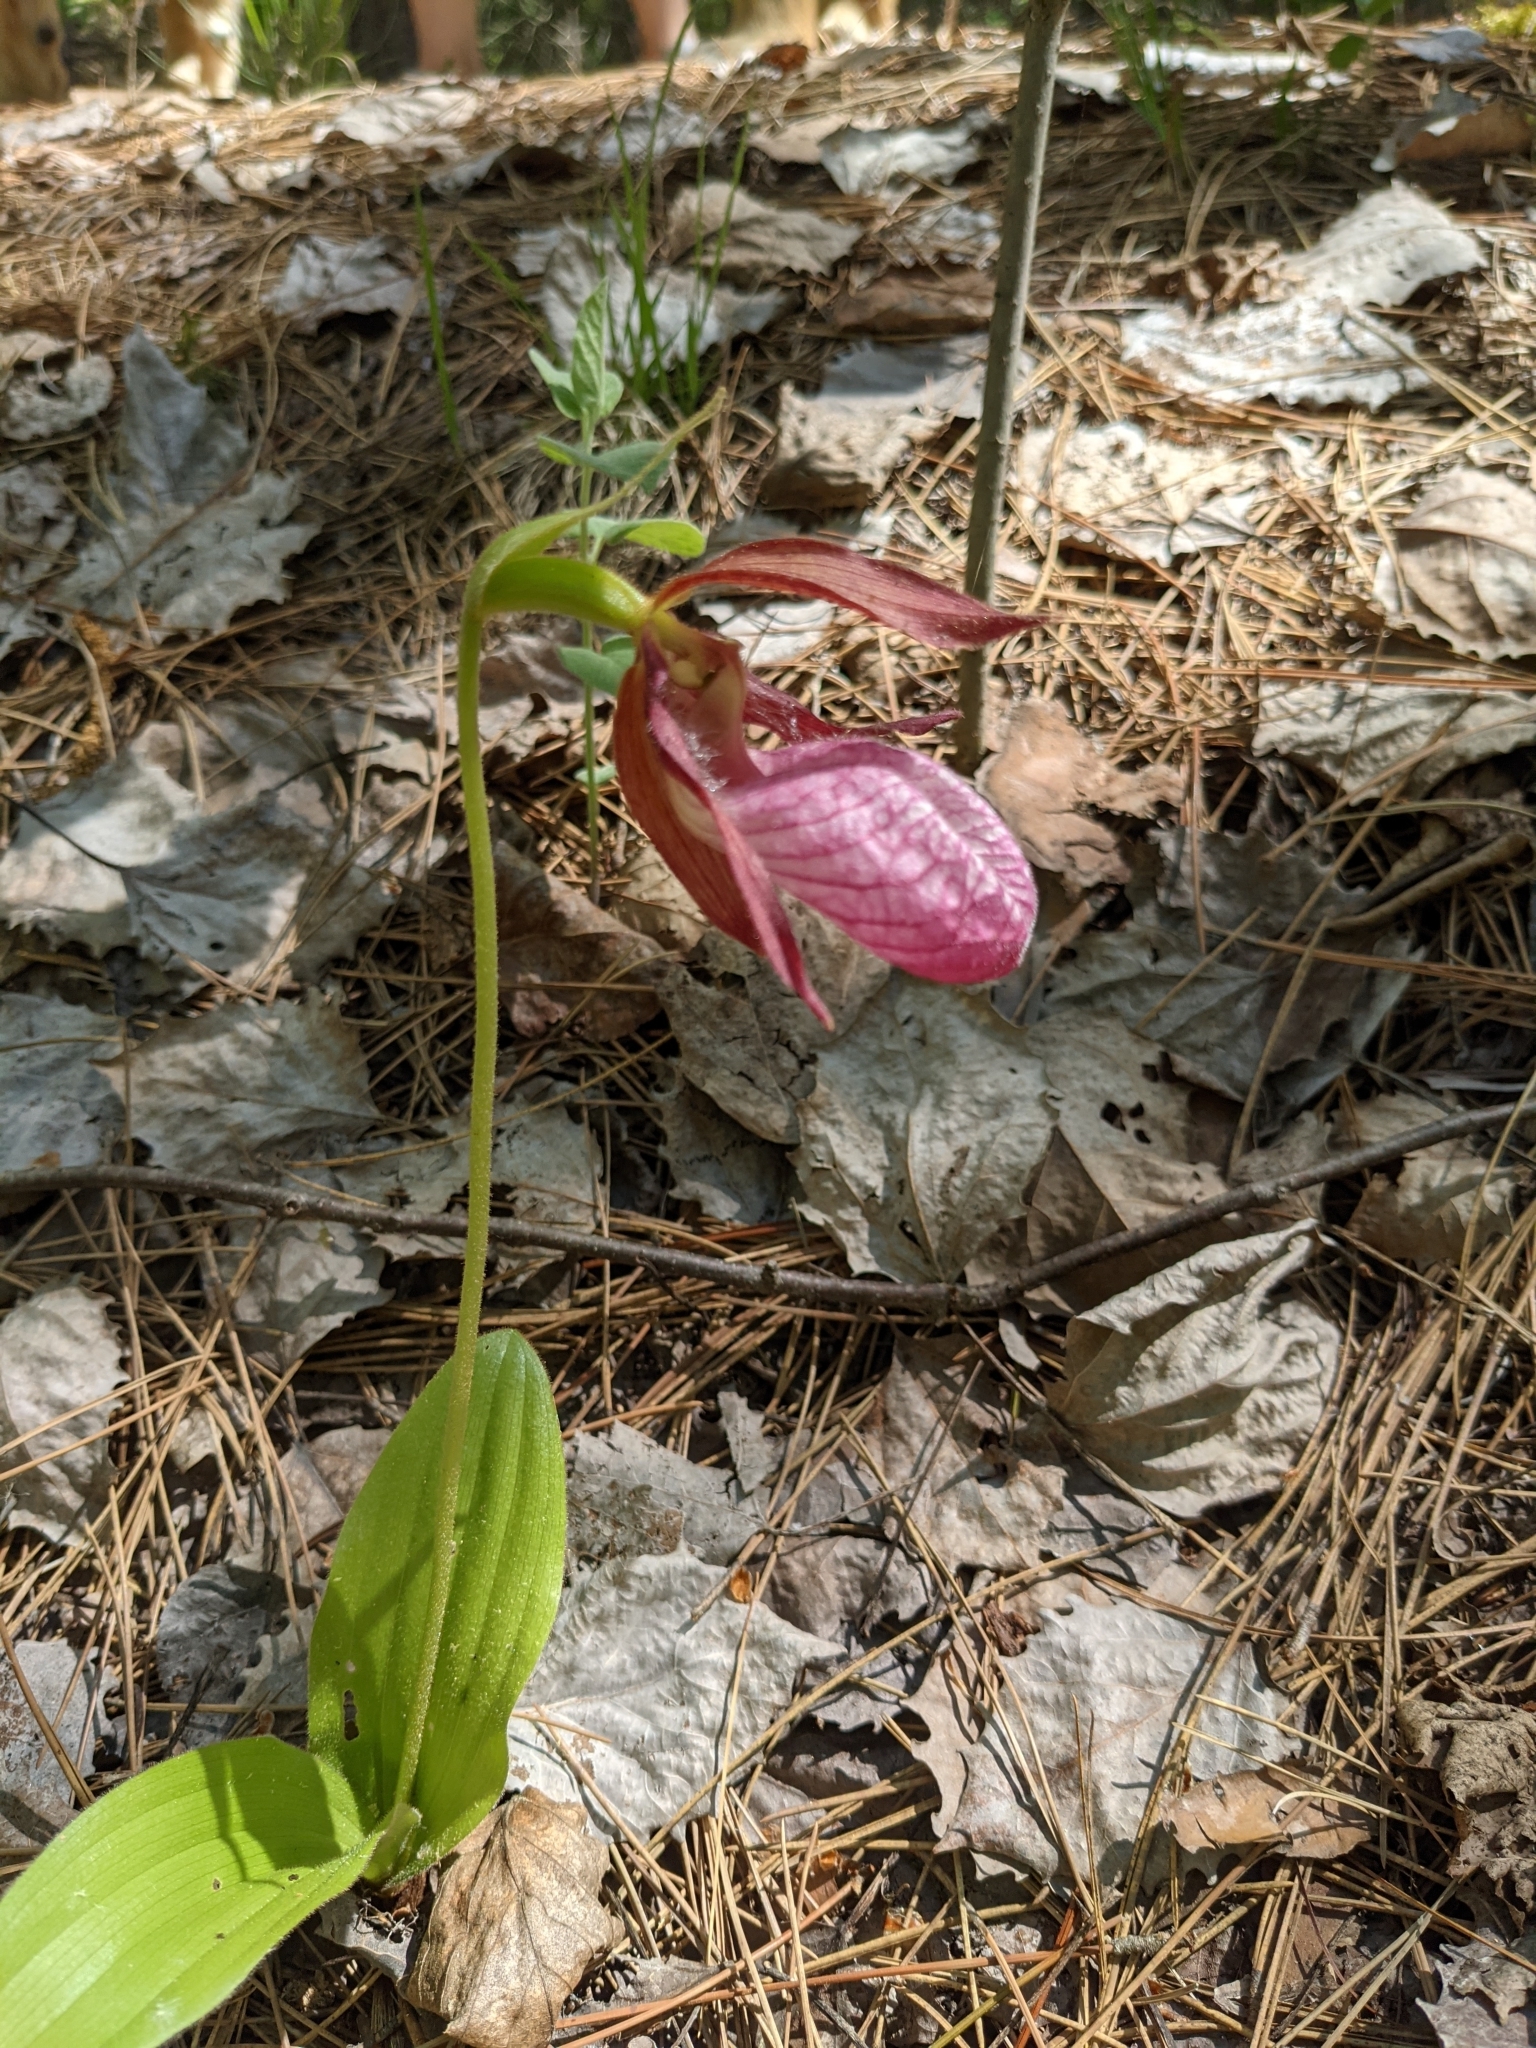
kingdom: Plantae
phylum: Tracheophyta
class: Liliopsida
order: Asparagales
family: Orchidaceae
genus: Cypripedium
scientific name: Cypripedium acaule
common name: Pink lady's-slipper
